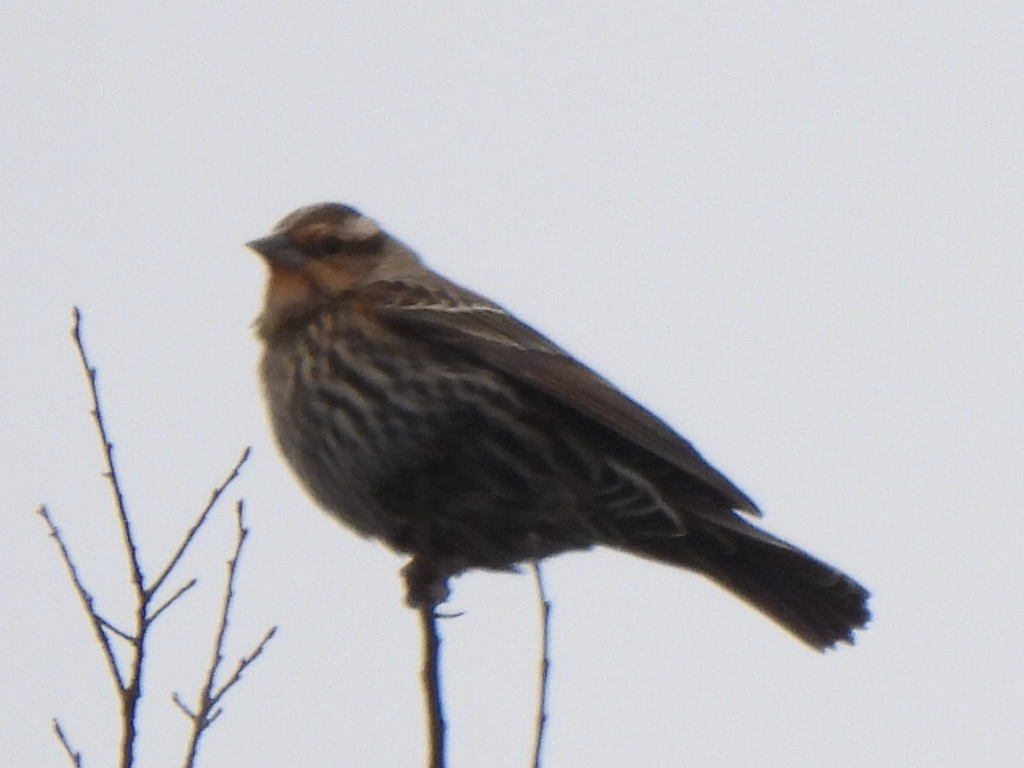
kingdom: Animalia
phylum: Chordata
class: Aves
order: Passeriformes
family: Icteridae
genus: Agelaius
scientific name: Agelaius phoeniceus
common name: Red-winged blackbird
